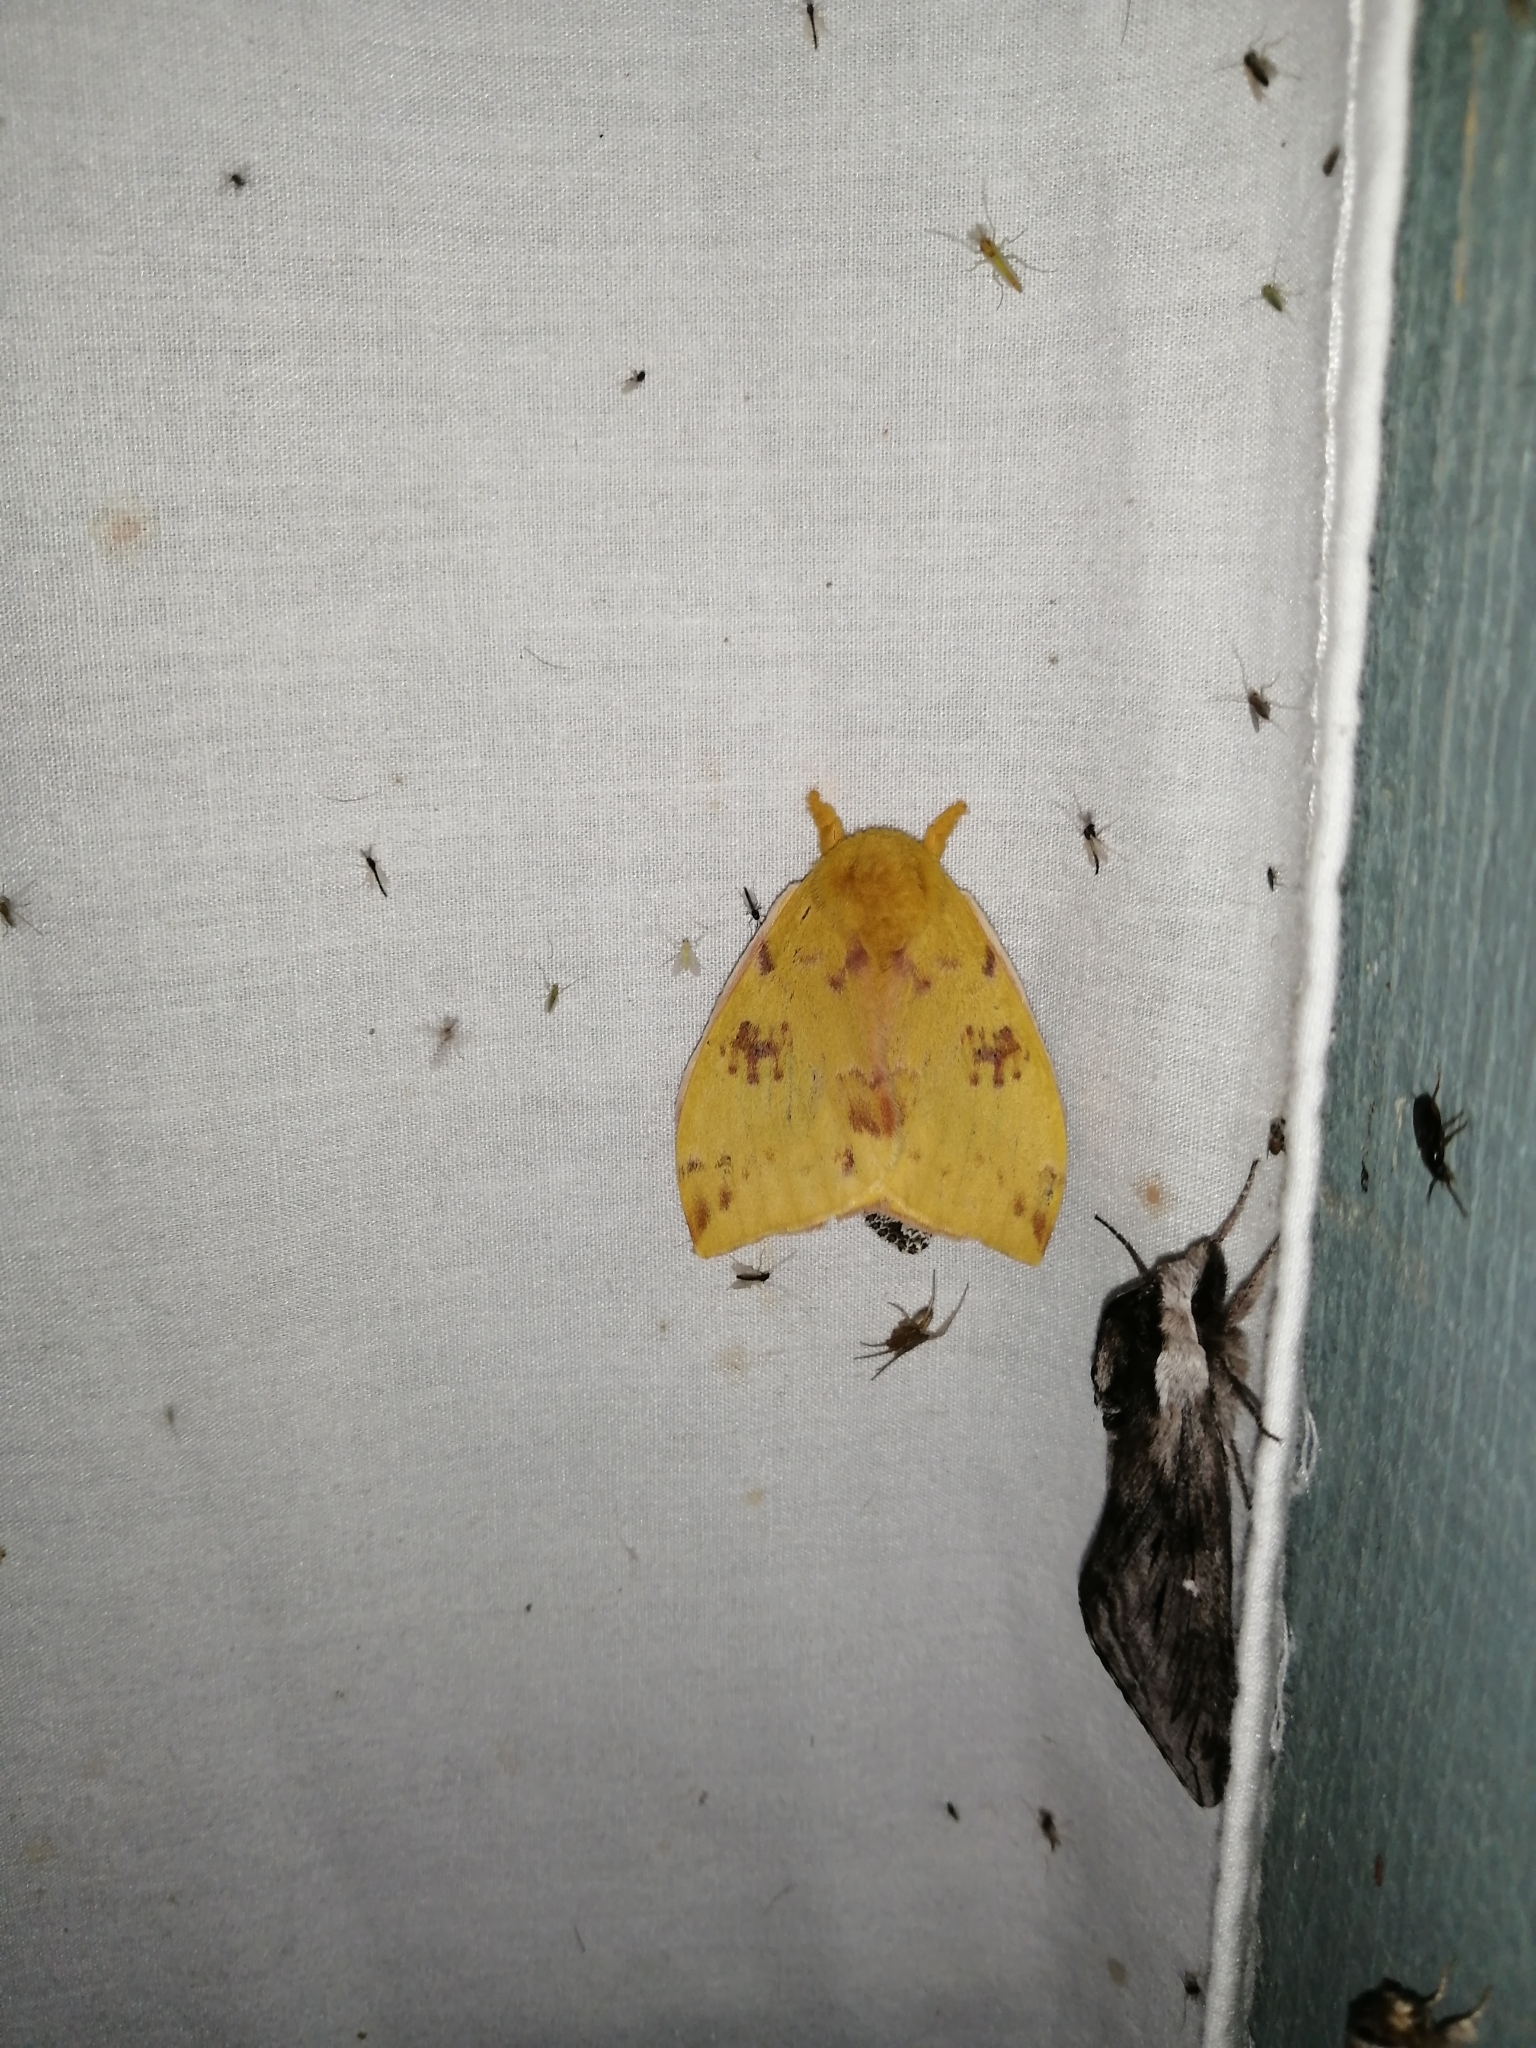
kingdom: Animalia
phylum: Arthropoda
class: Insecta
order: Lepidoptera
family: Saturniidae
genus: Automeris
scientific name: Automeris io
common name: Io moth
